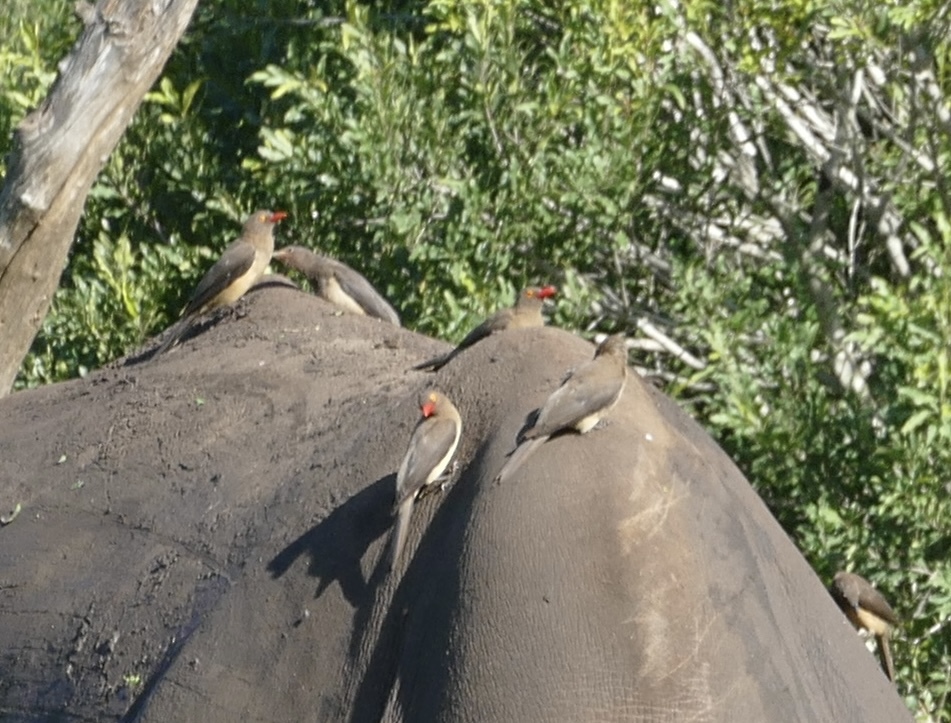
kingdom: Animalia
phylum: Chordata
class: Aves
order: Passeriformes
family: Buphagidae
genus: Buphagus
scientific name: Buphagus erythrorhynchus
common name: Red-billed oxpecker
